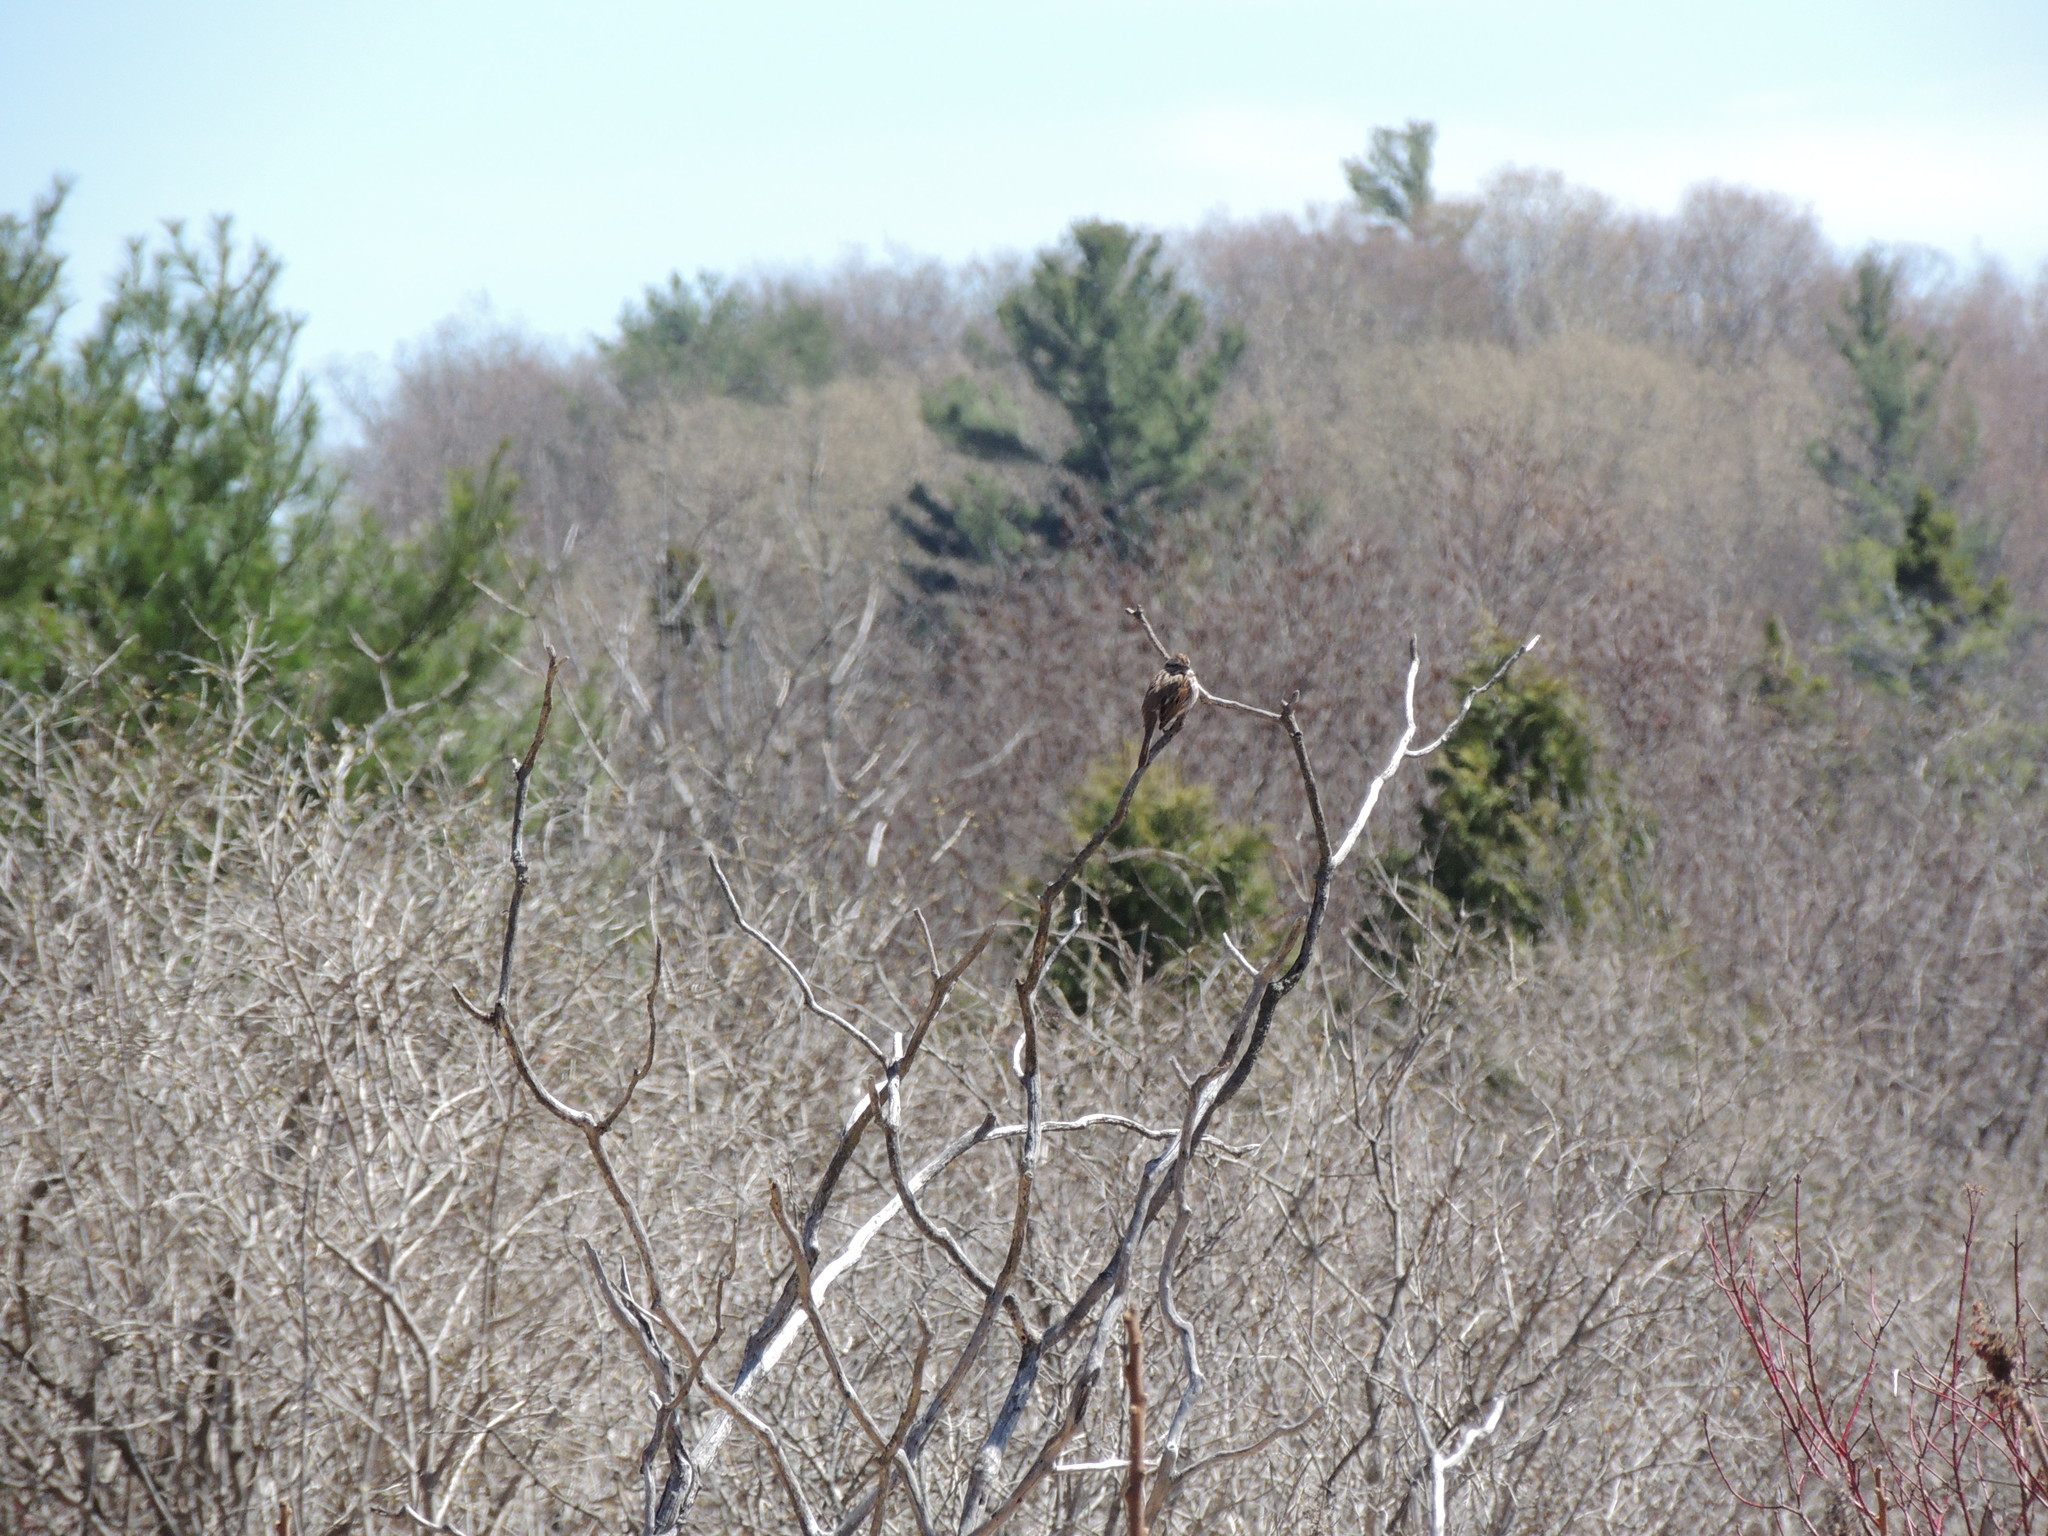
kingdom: Animalia
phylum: Chordata
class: Aves
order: Passeriformes
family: Passerellidae
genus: Melospiza
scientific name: Melospiza melodia
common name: Song sparrow
